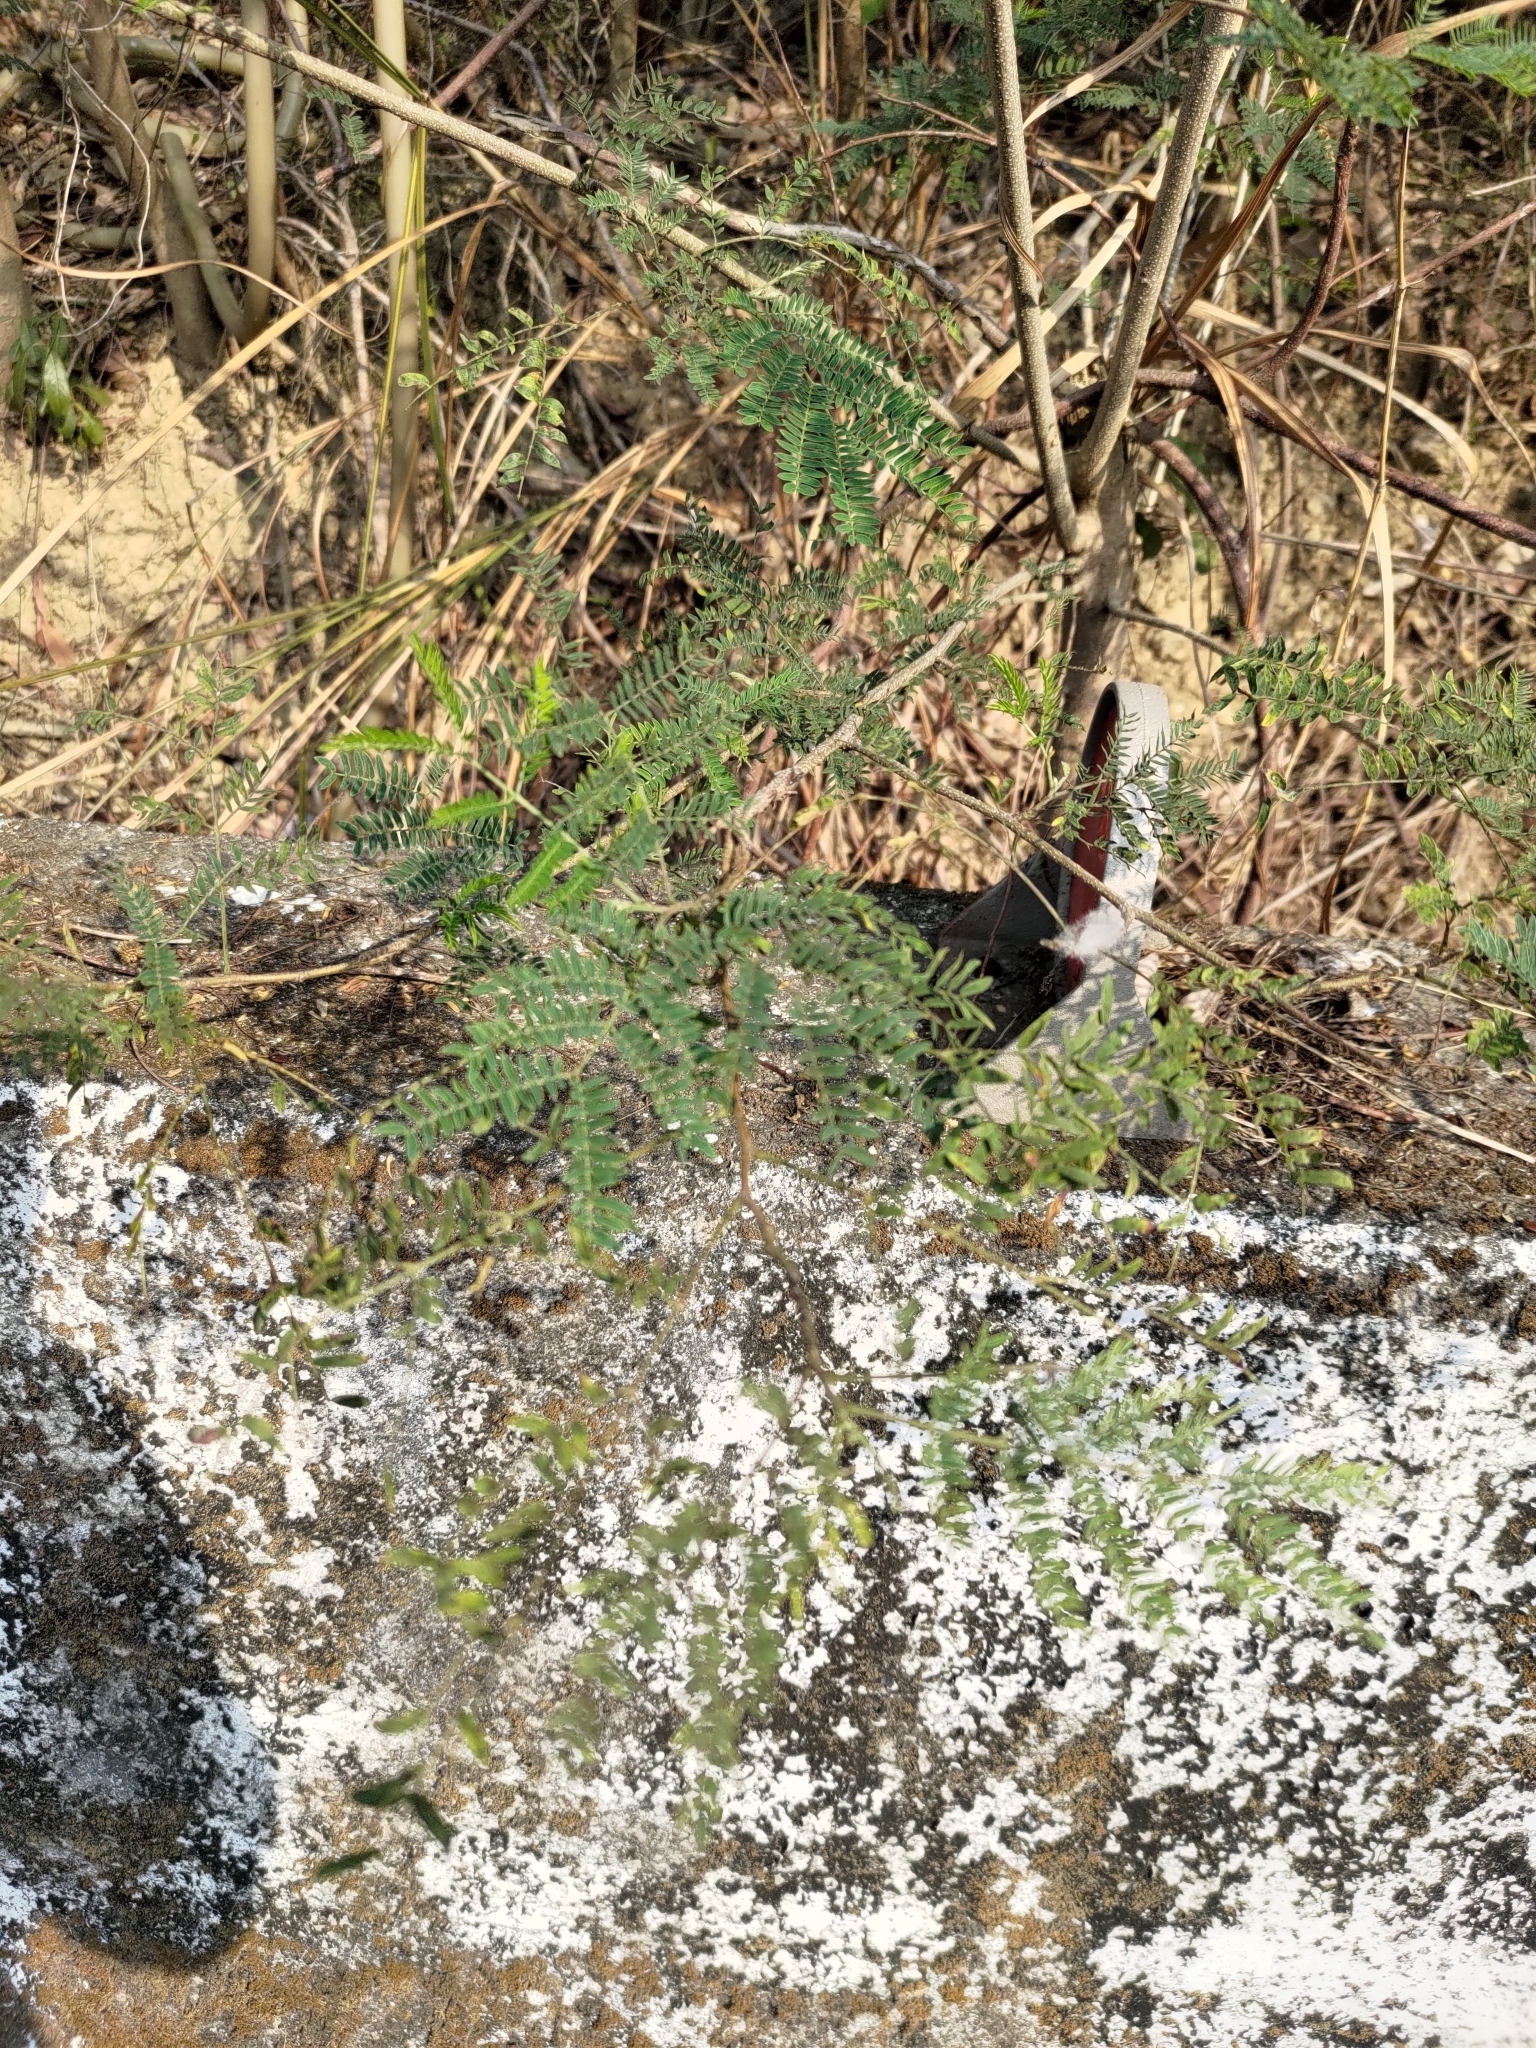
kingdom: Plantae
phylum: Tracheophyta
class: Magnoliopsida
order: Fabales
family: Fabaceae
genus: Leucaena
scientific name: Leucaena leucocephala
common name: White leadtree
